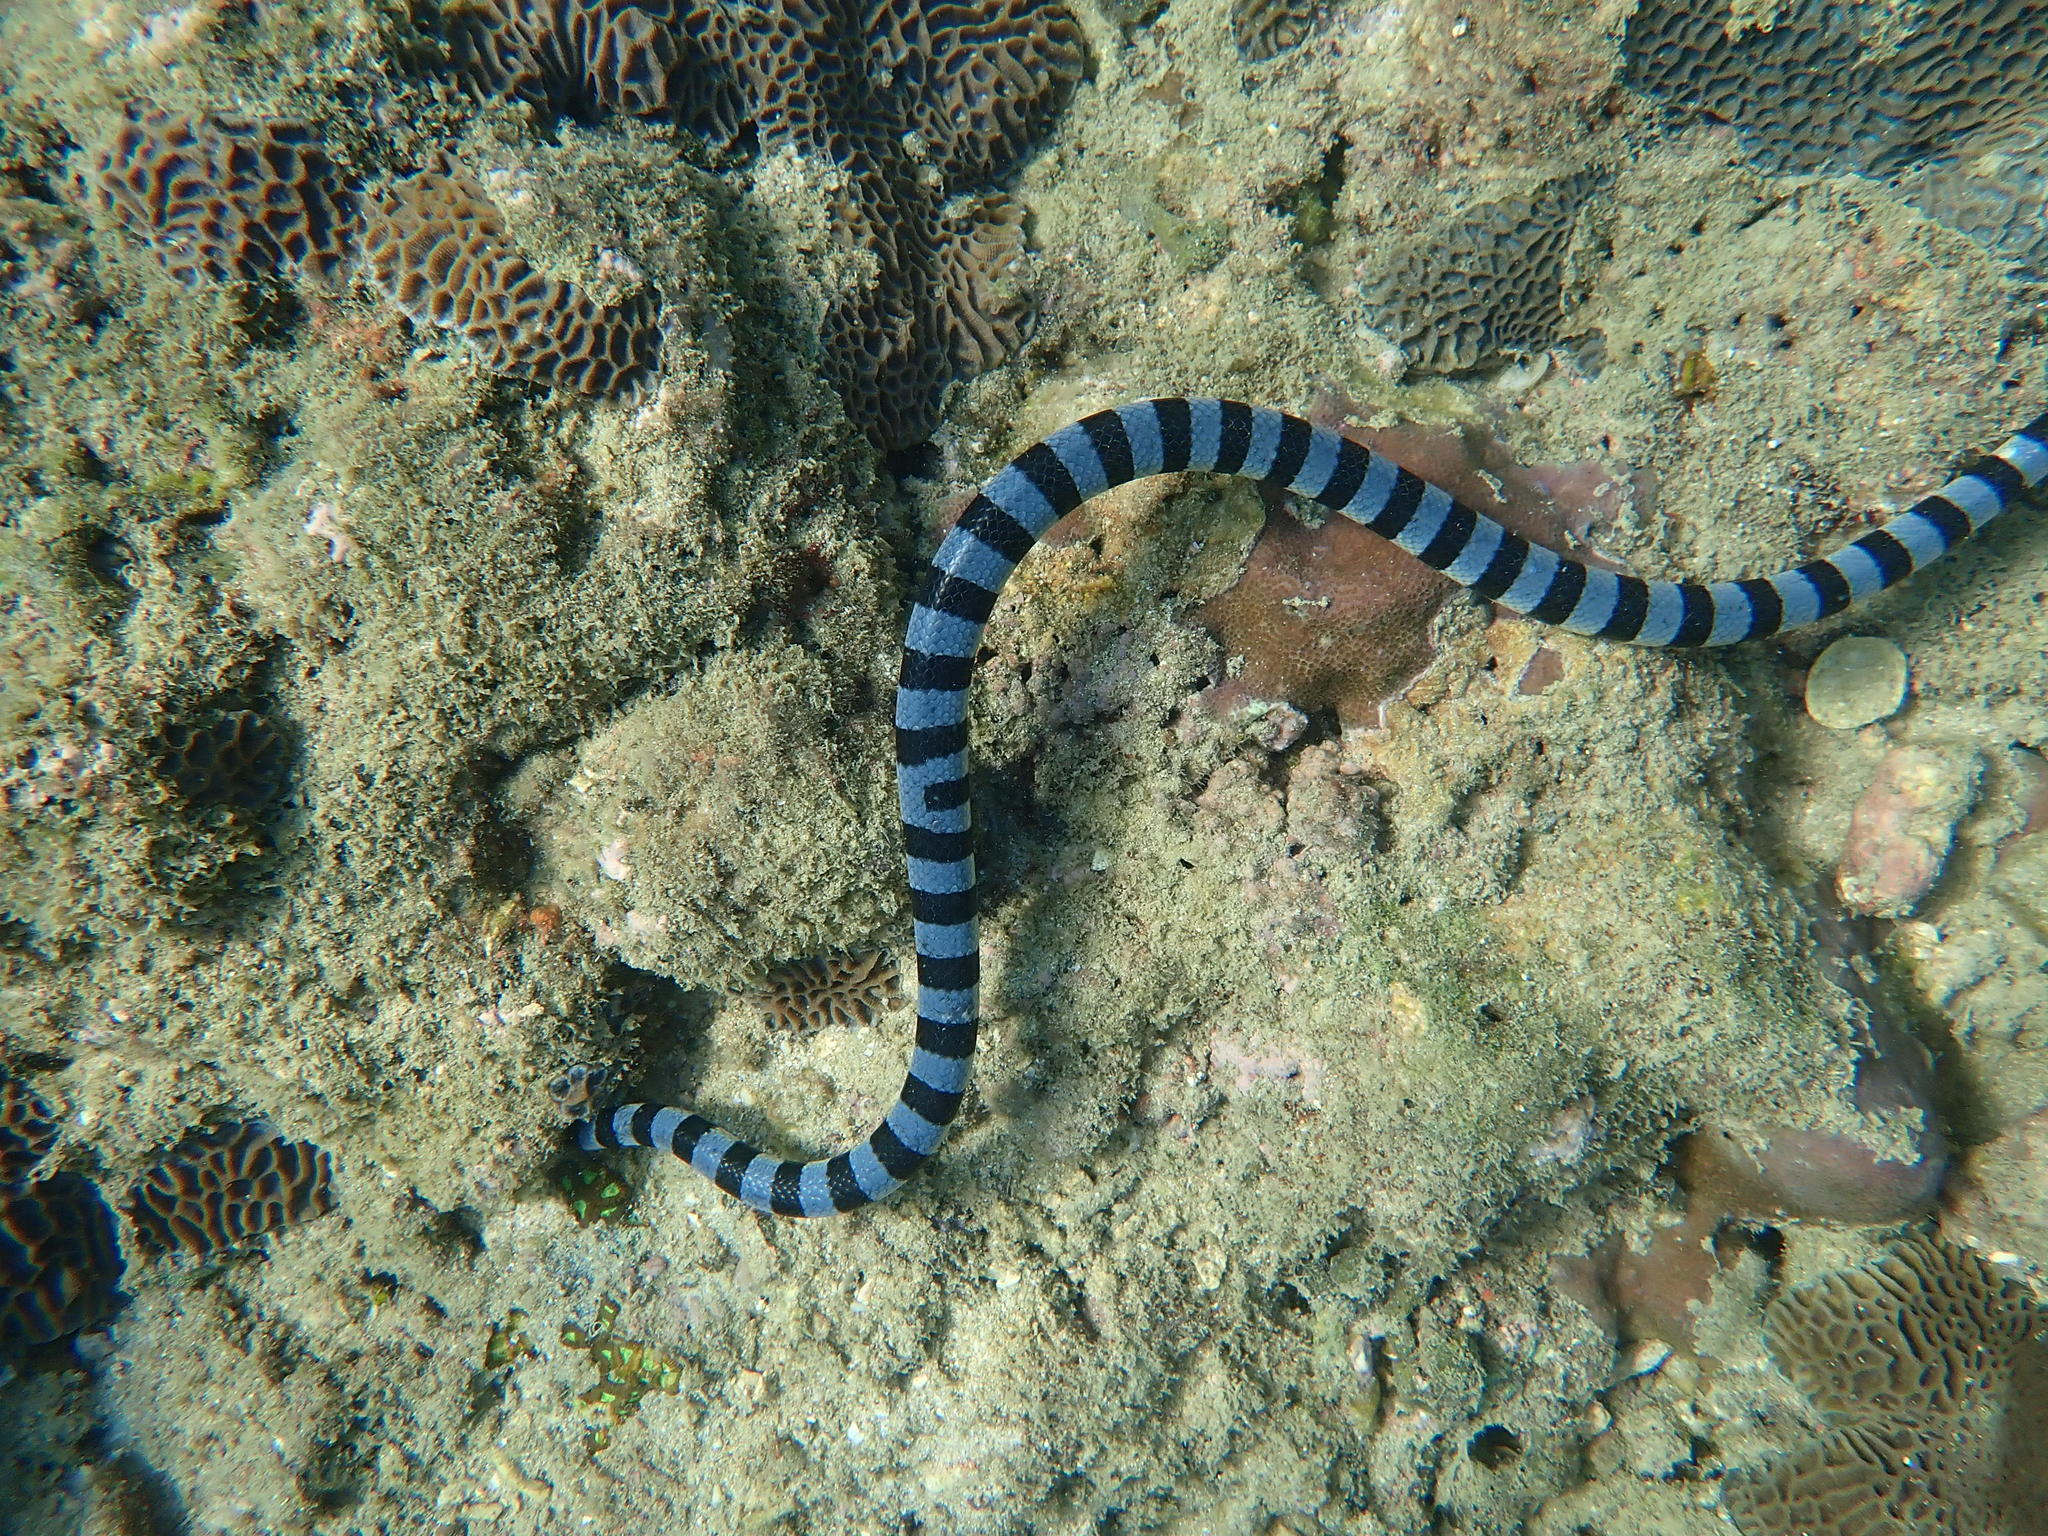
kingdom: Animalia
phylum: Chordata
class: Squamata
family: Elapidae
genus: Laticauda
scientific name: Laticauda colubrina
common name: Yellow-lipped sea krait
